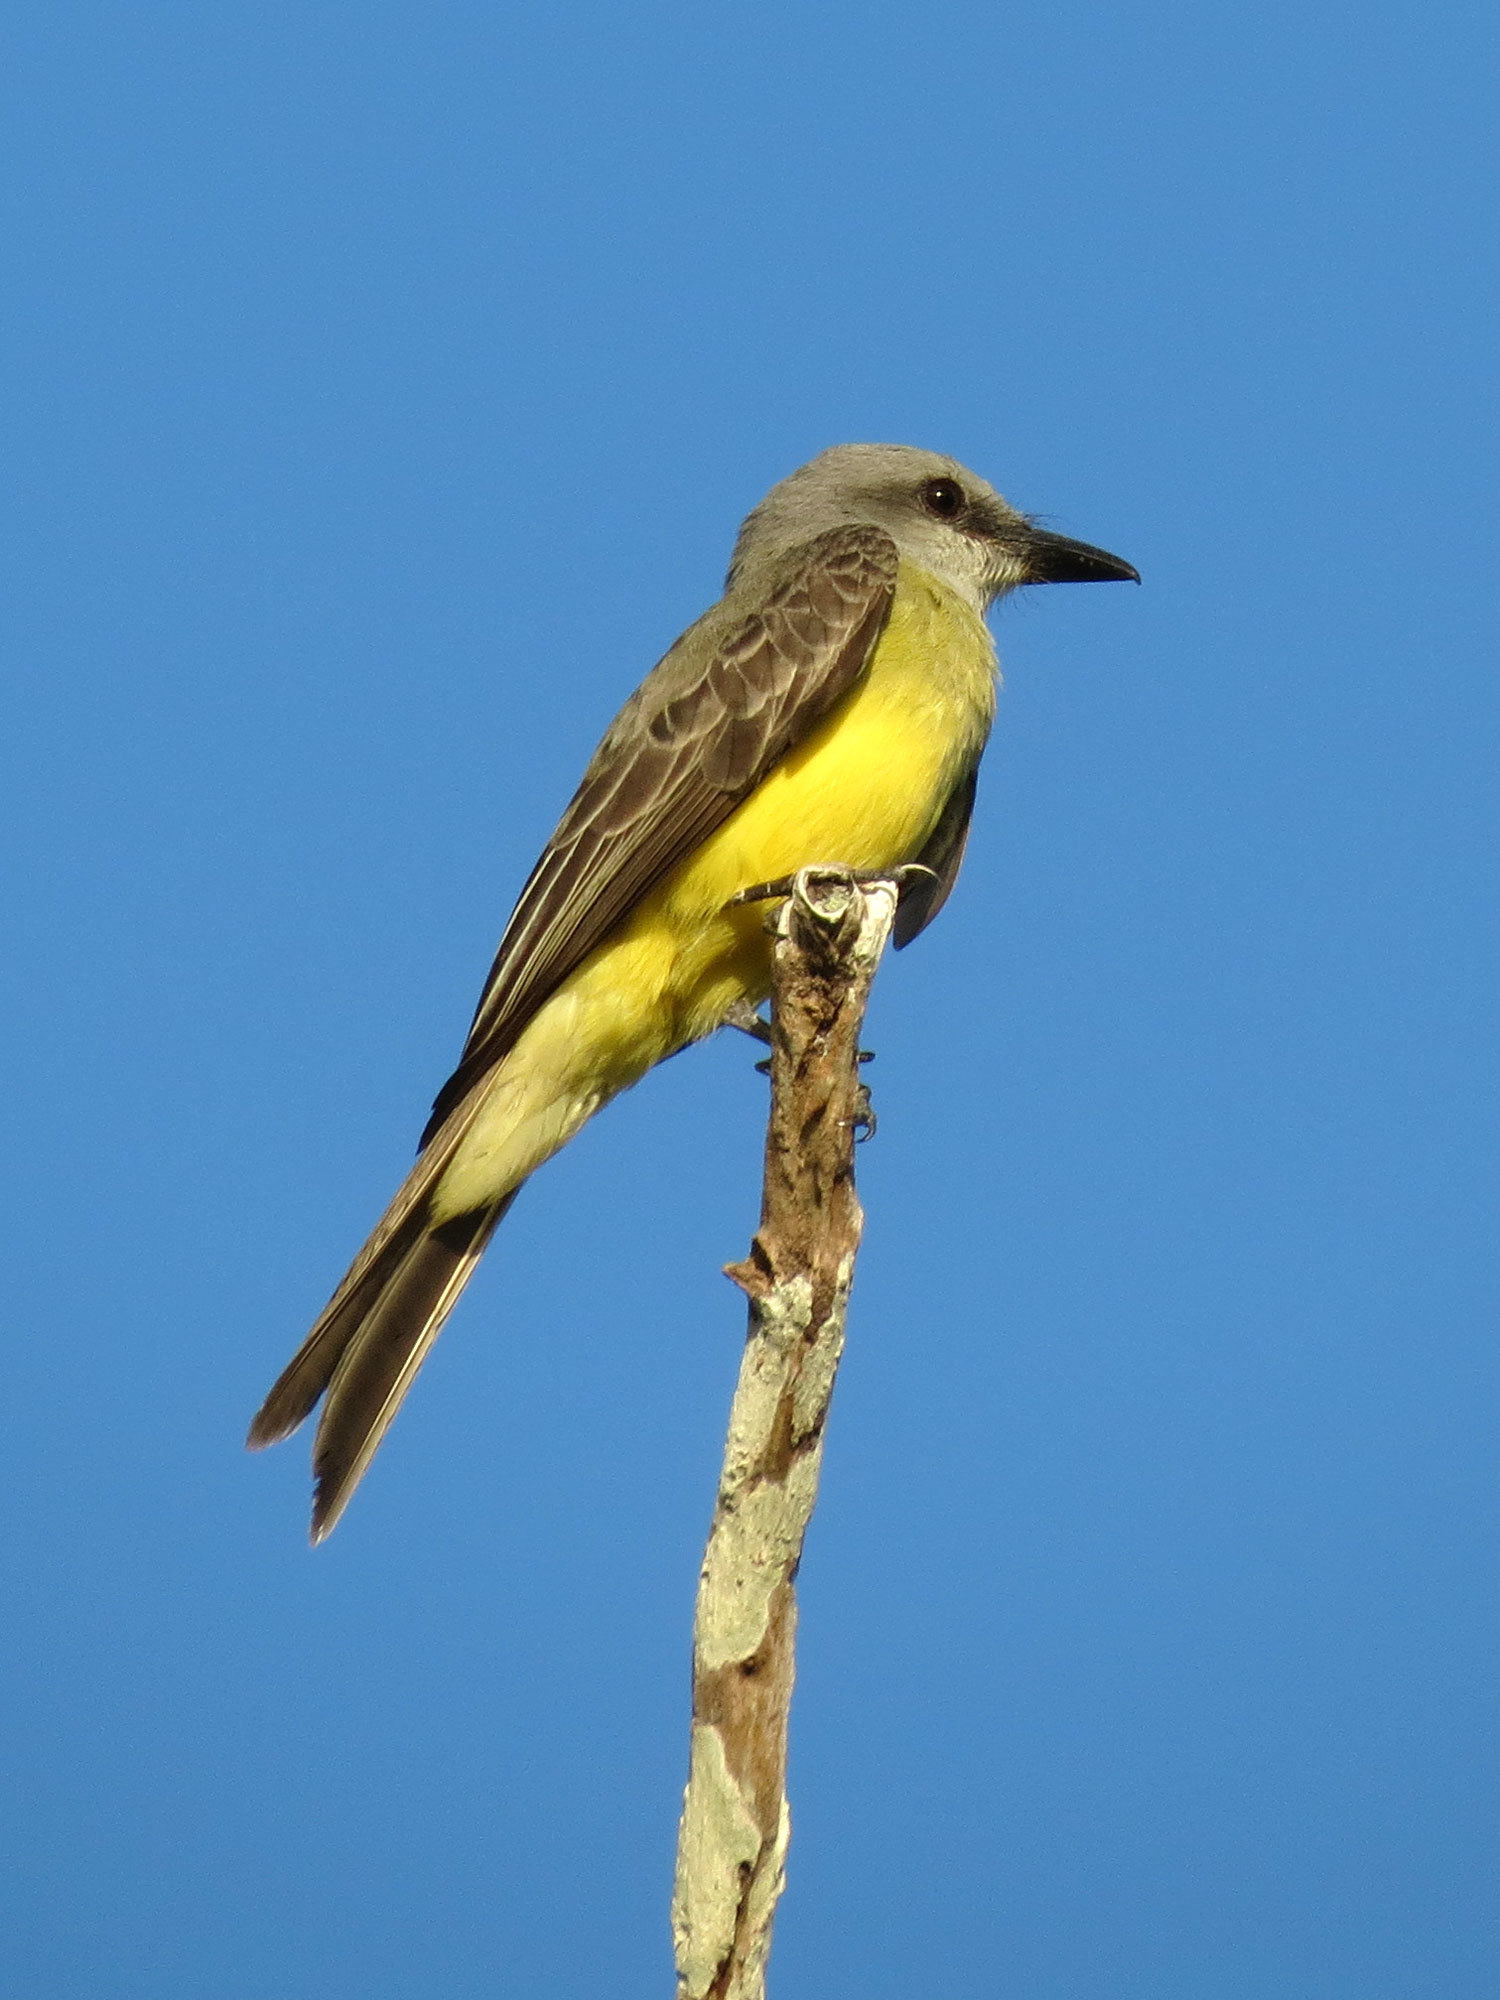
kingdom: Animalia
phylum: Chordata
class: Aves
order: Passeriformes
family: Tyrannidae
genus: Tyrannus
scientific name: Tyrannus melancholicus
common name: Tropical kingbird
